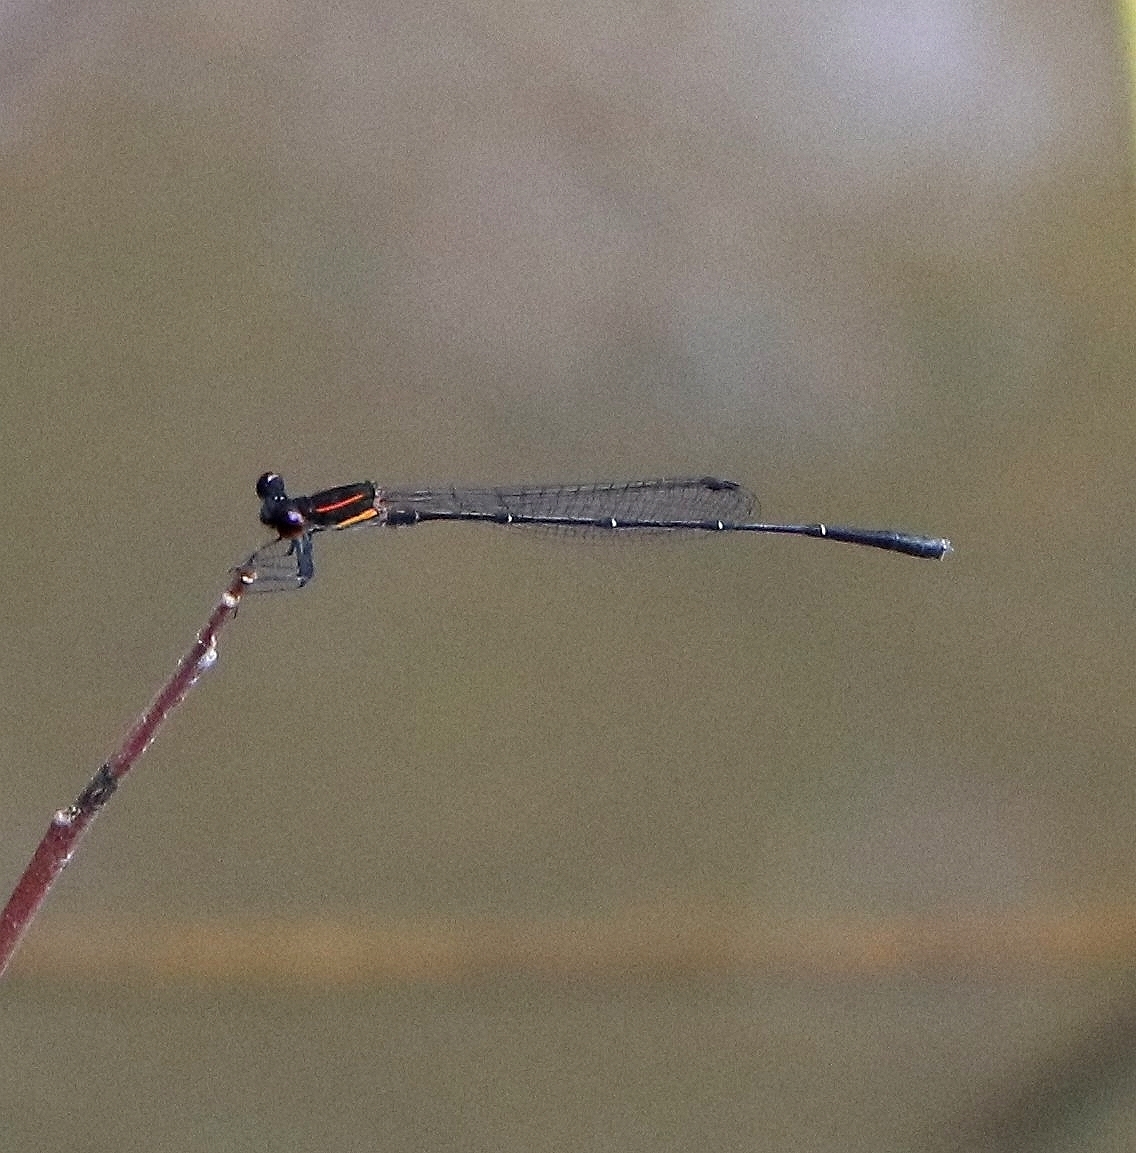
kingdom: Animalia
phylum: Arthropoda
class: Insecta
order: Odonata
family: Platycnemididae
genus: Prodasineura
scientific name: Prodasineura verticalis
